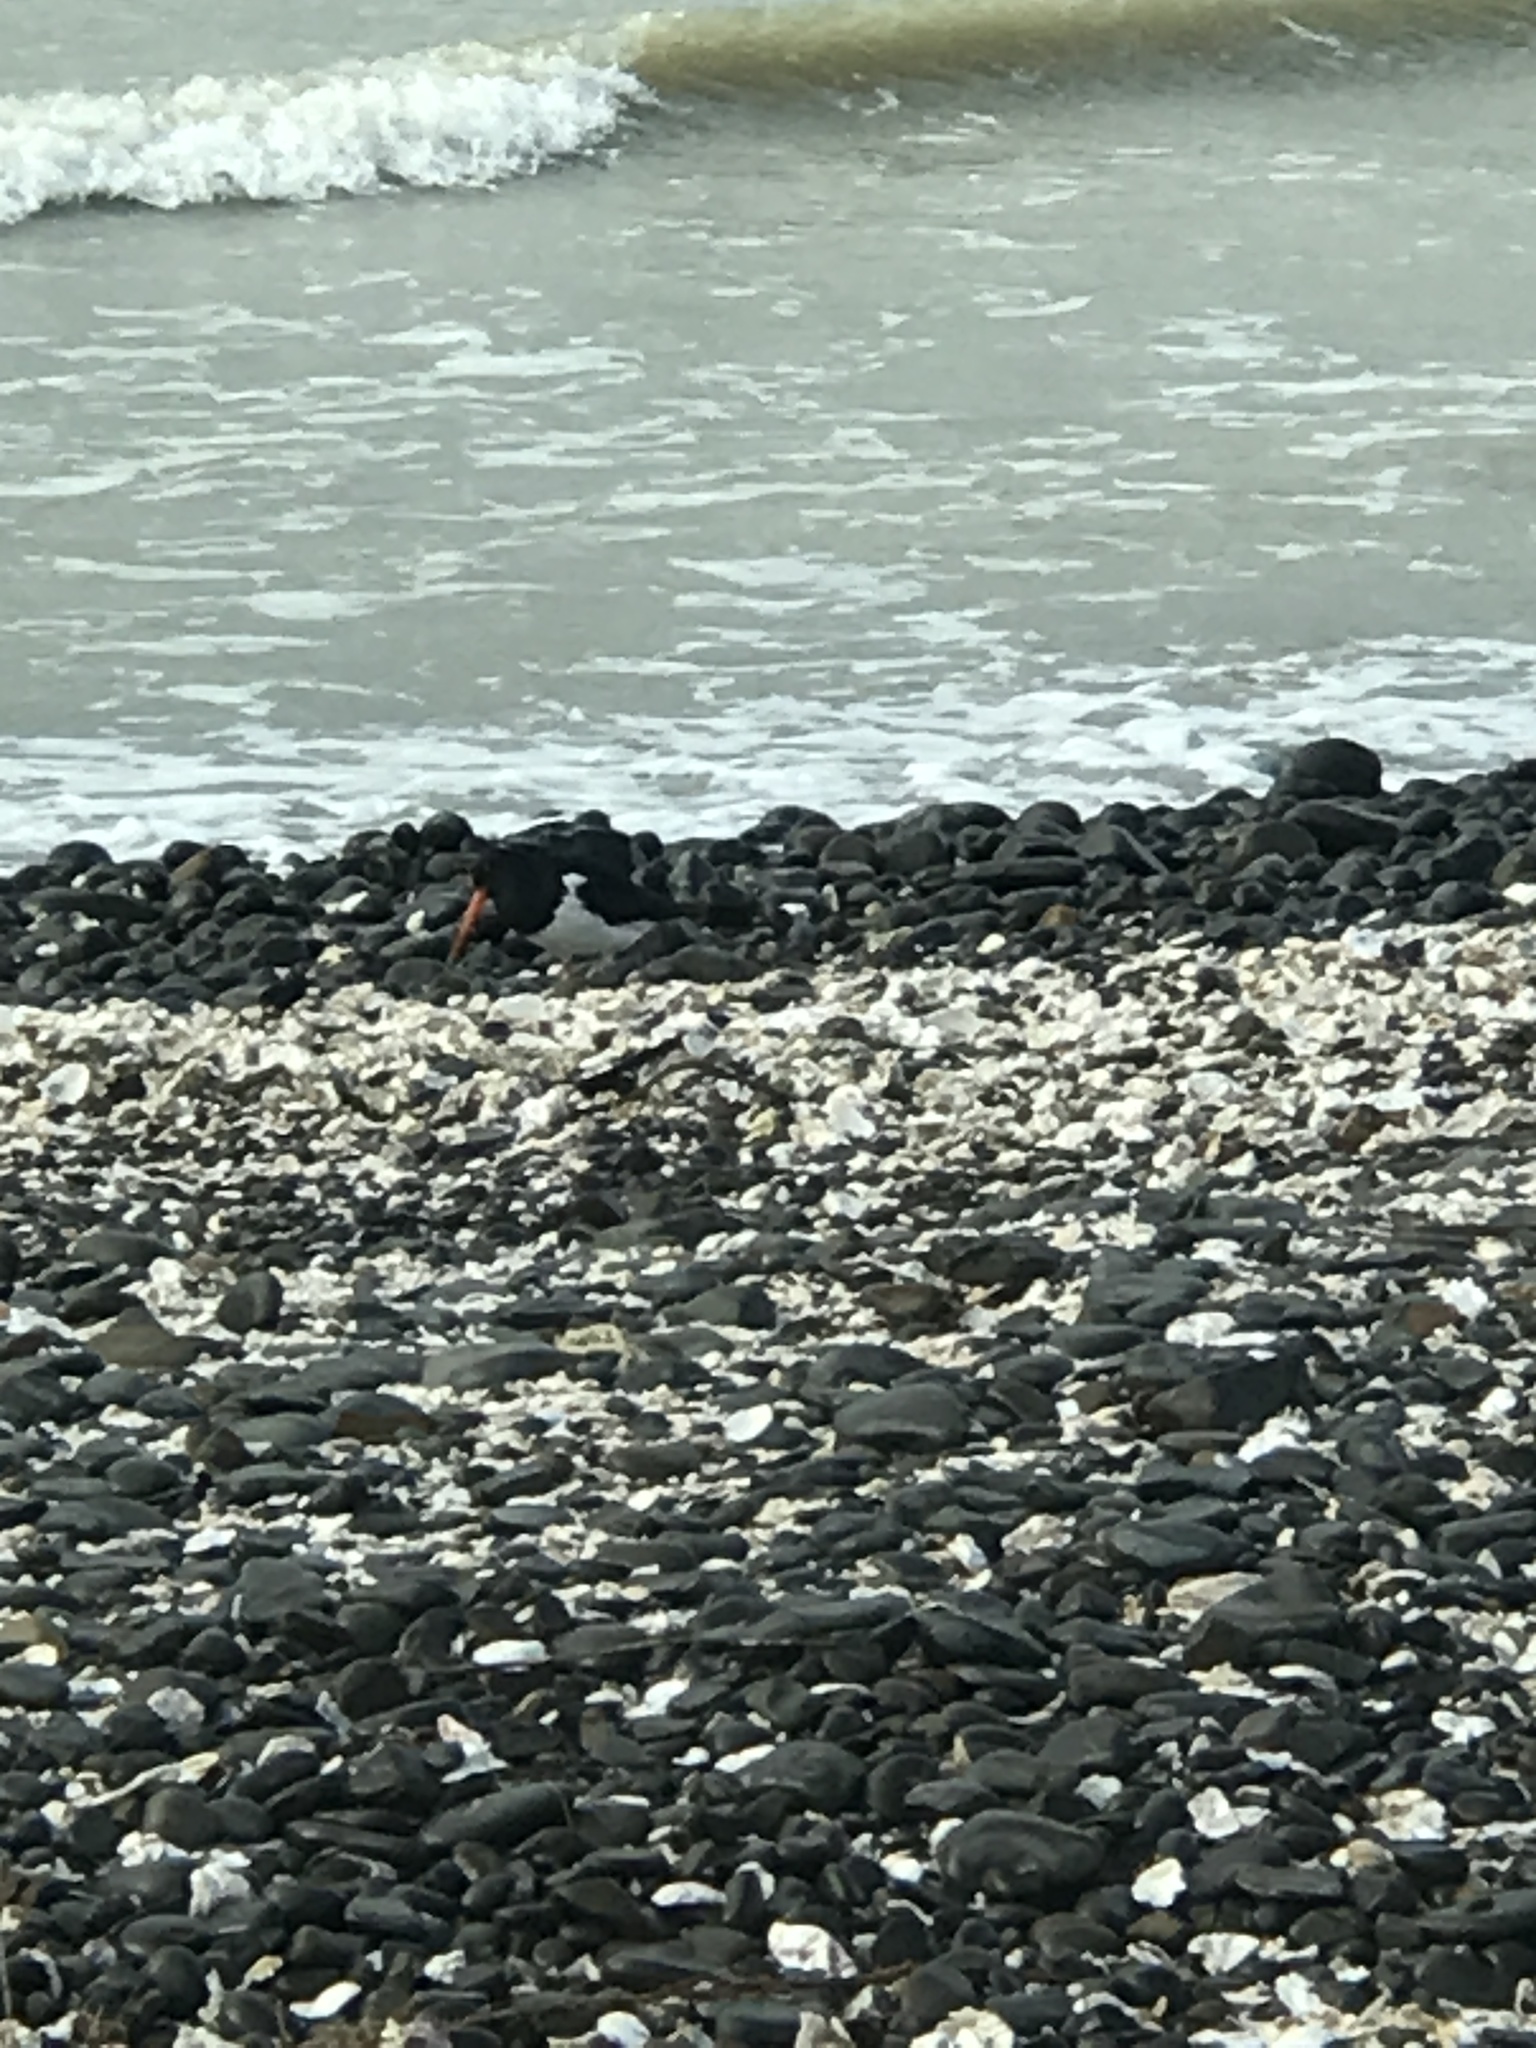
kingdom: Animalia
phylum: Chordata
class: Aves
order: Charadriiformes
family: Haematopodidae
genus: Haematopus
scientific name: Haematopus finschi
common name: South island oystercatcher
